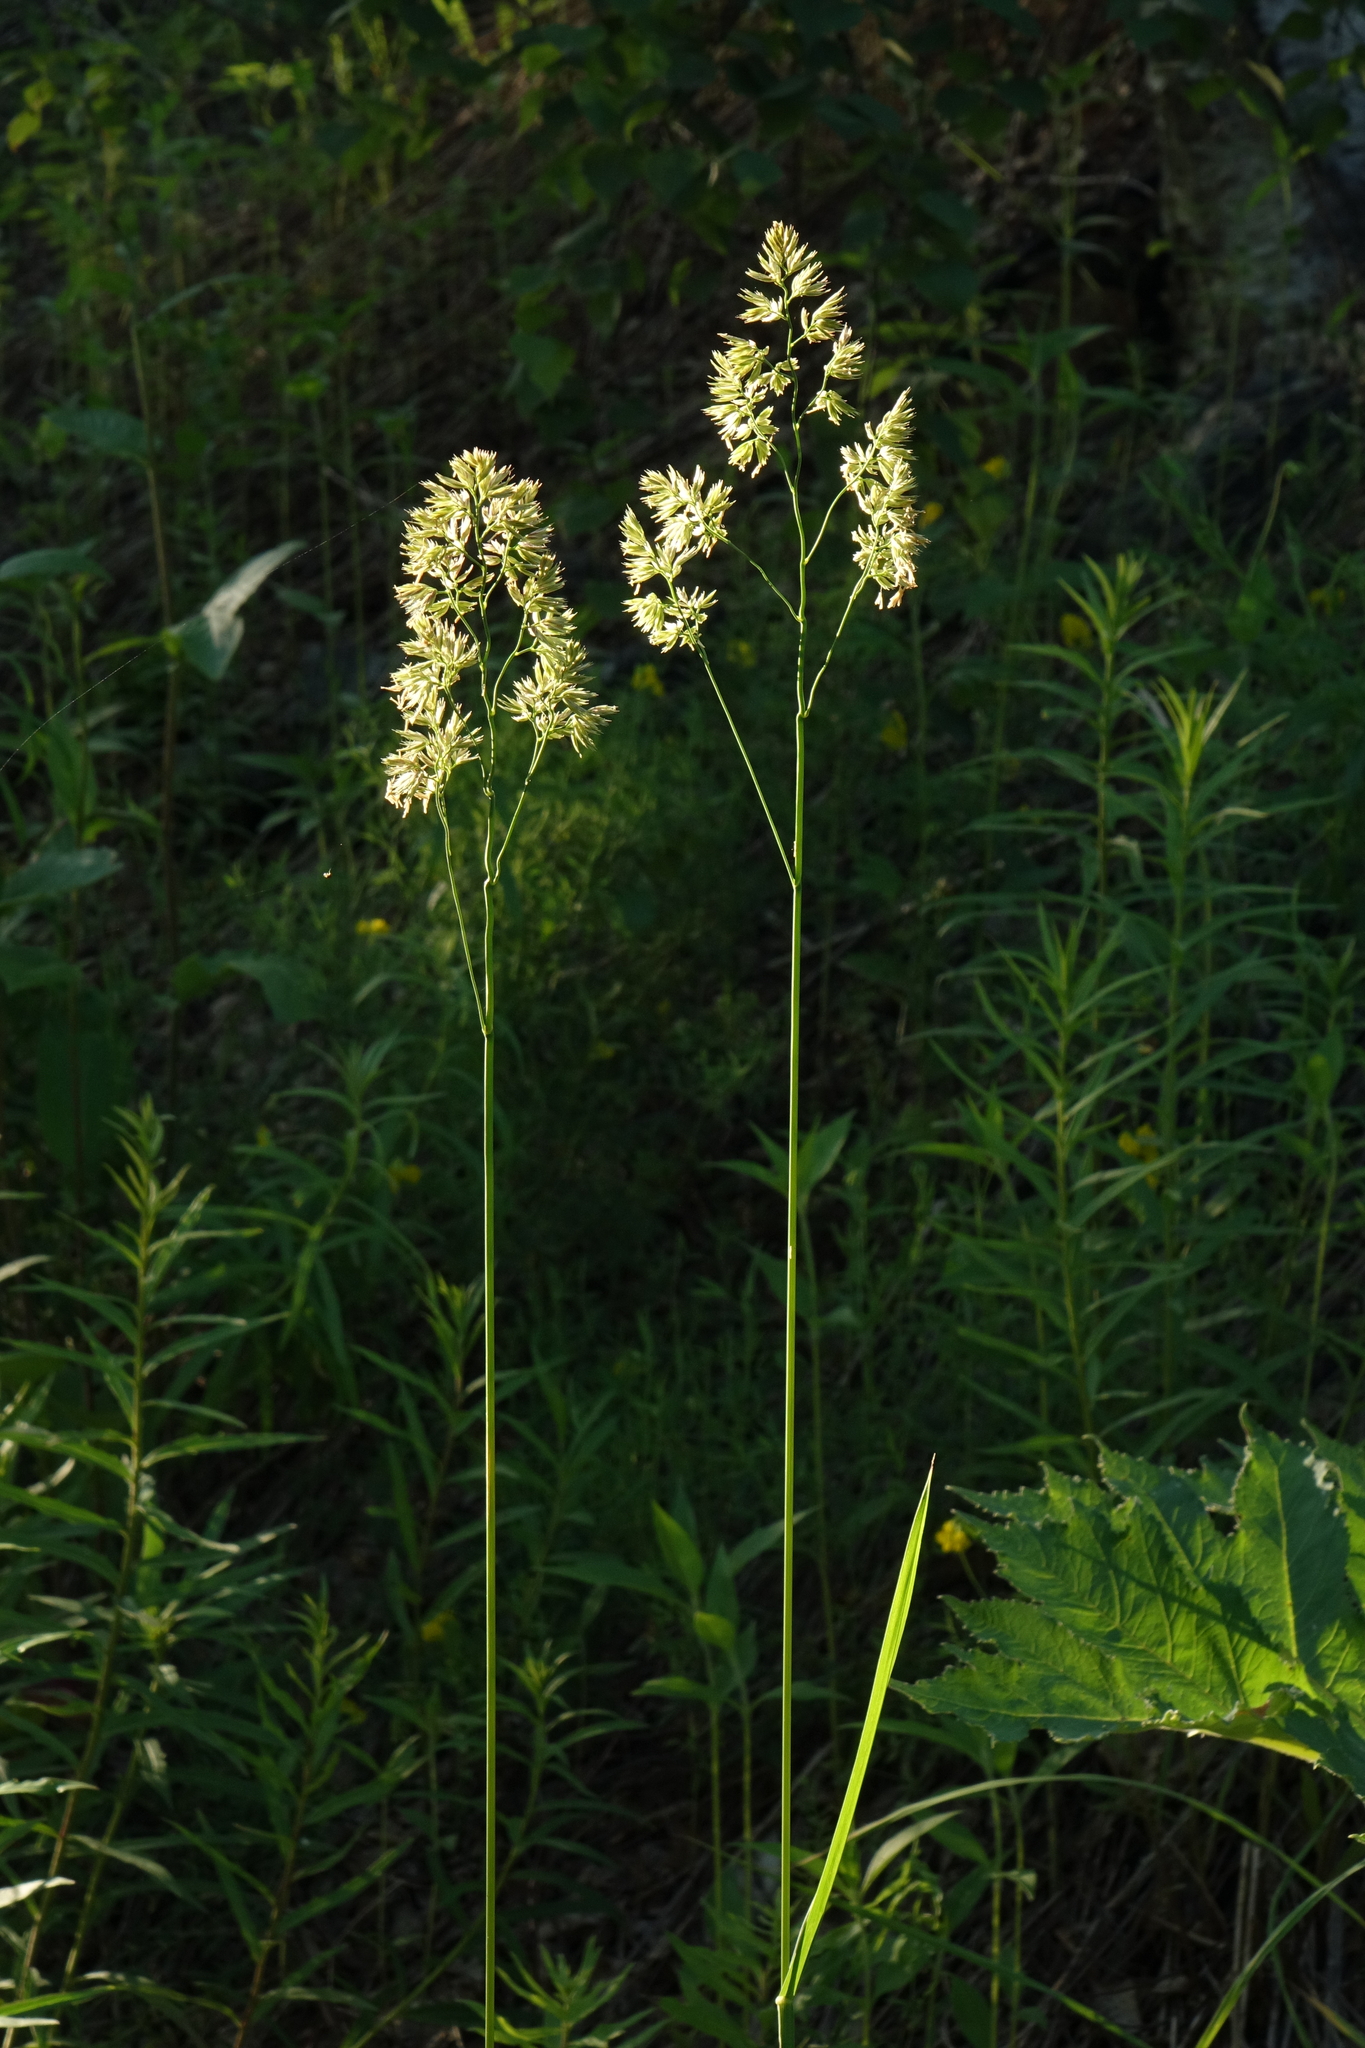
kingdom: Plantae
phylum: Tracheophyta
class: Liliopsida
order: Poales
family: Poaceae
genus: Dactylis
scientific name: Dactylis glomerata
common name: Orchardgrass
